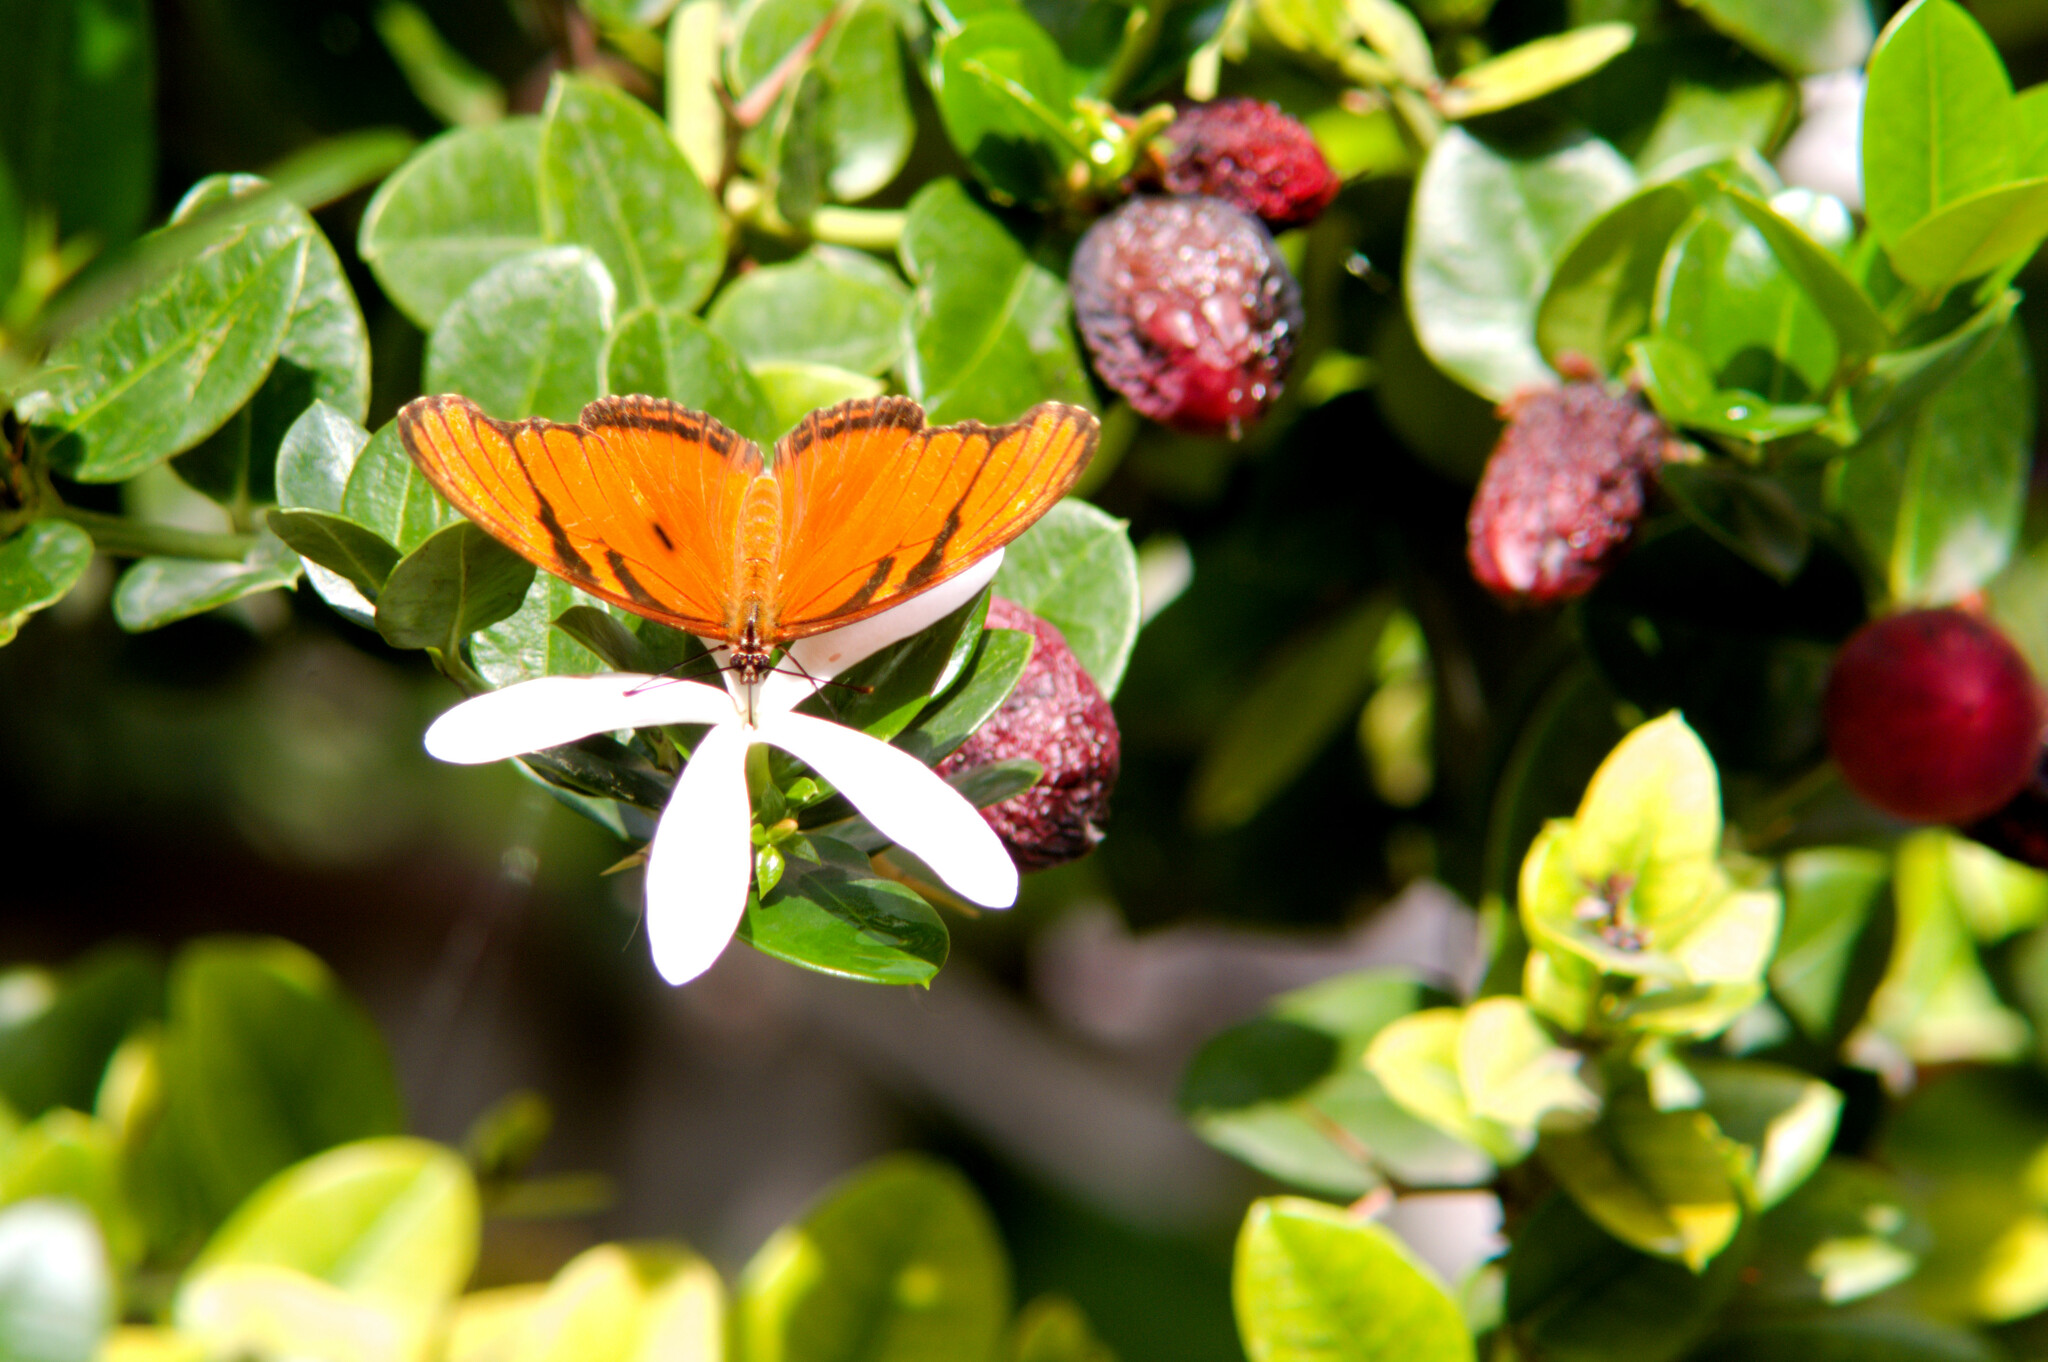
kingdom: Animalia
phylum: Arthropoda
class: Insecta
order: Lepidoptera
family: Nymphalidae
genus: Dione
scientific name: Dione juno
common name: Juno silverspot
